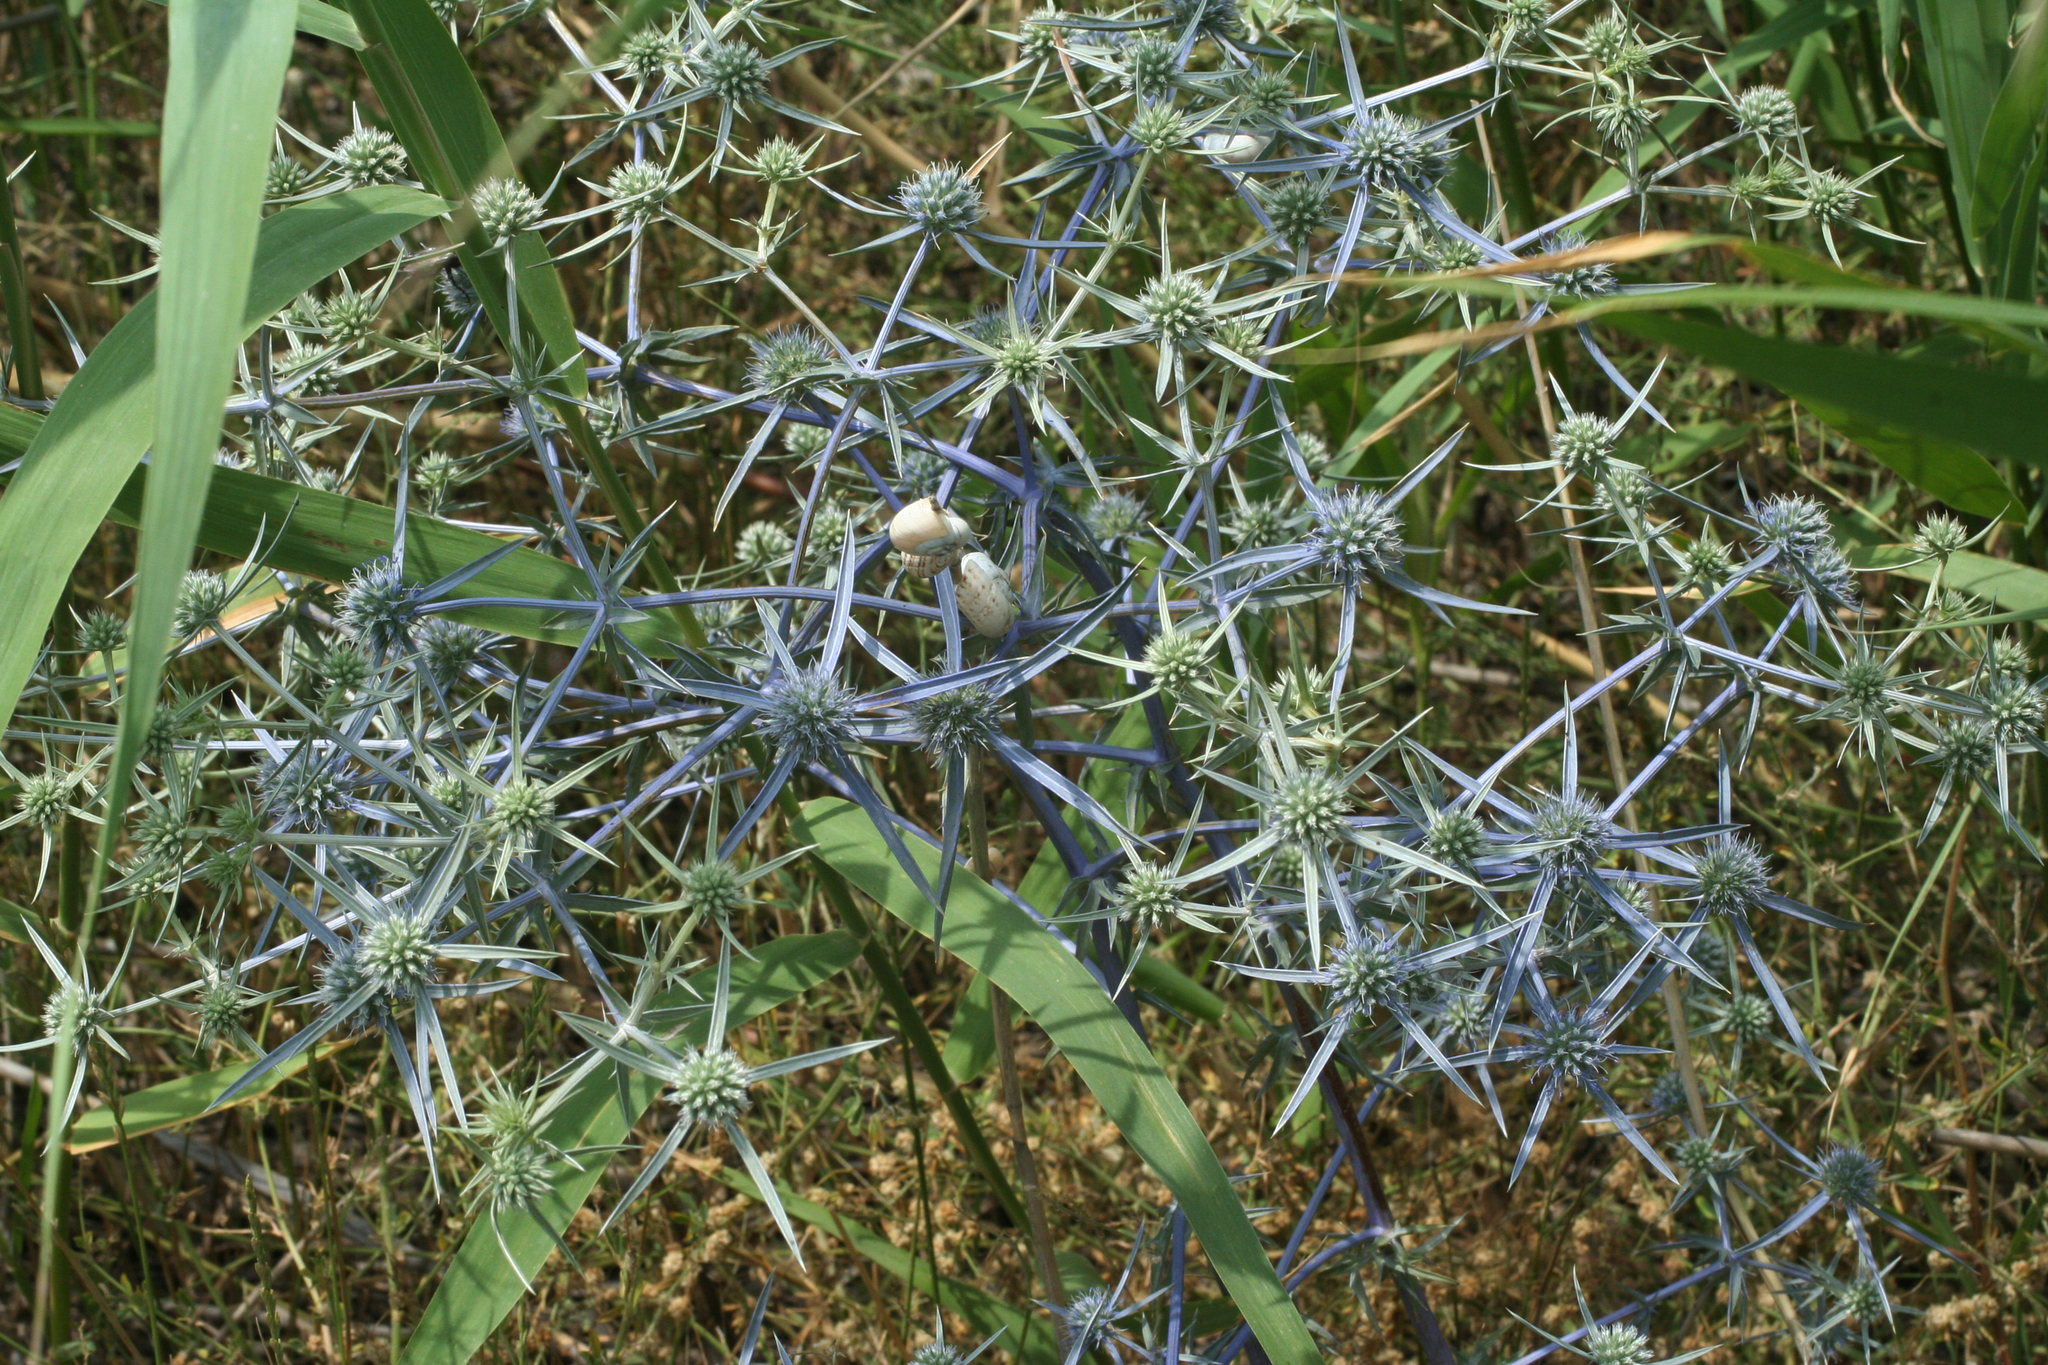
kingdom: Plantae
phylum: Tracheophyta
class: Magnoliopsida
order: Apiales
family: Apiaceae
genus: Eryngium
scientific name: Eryngium caeruleum
